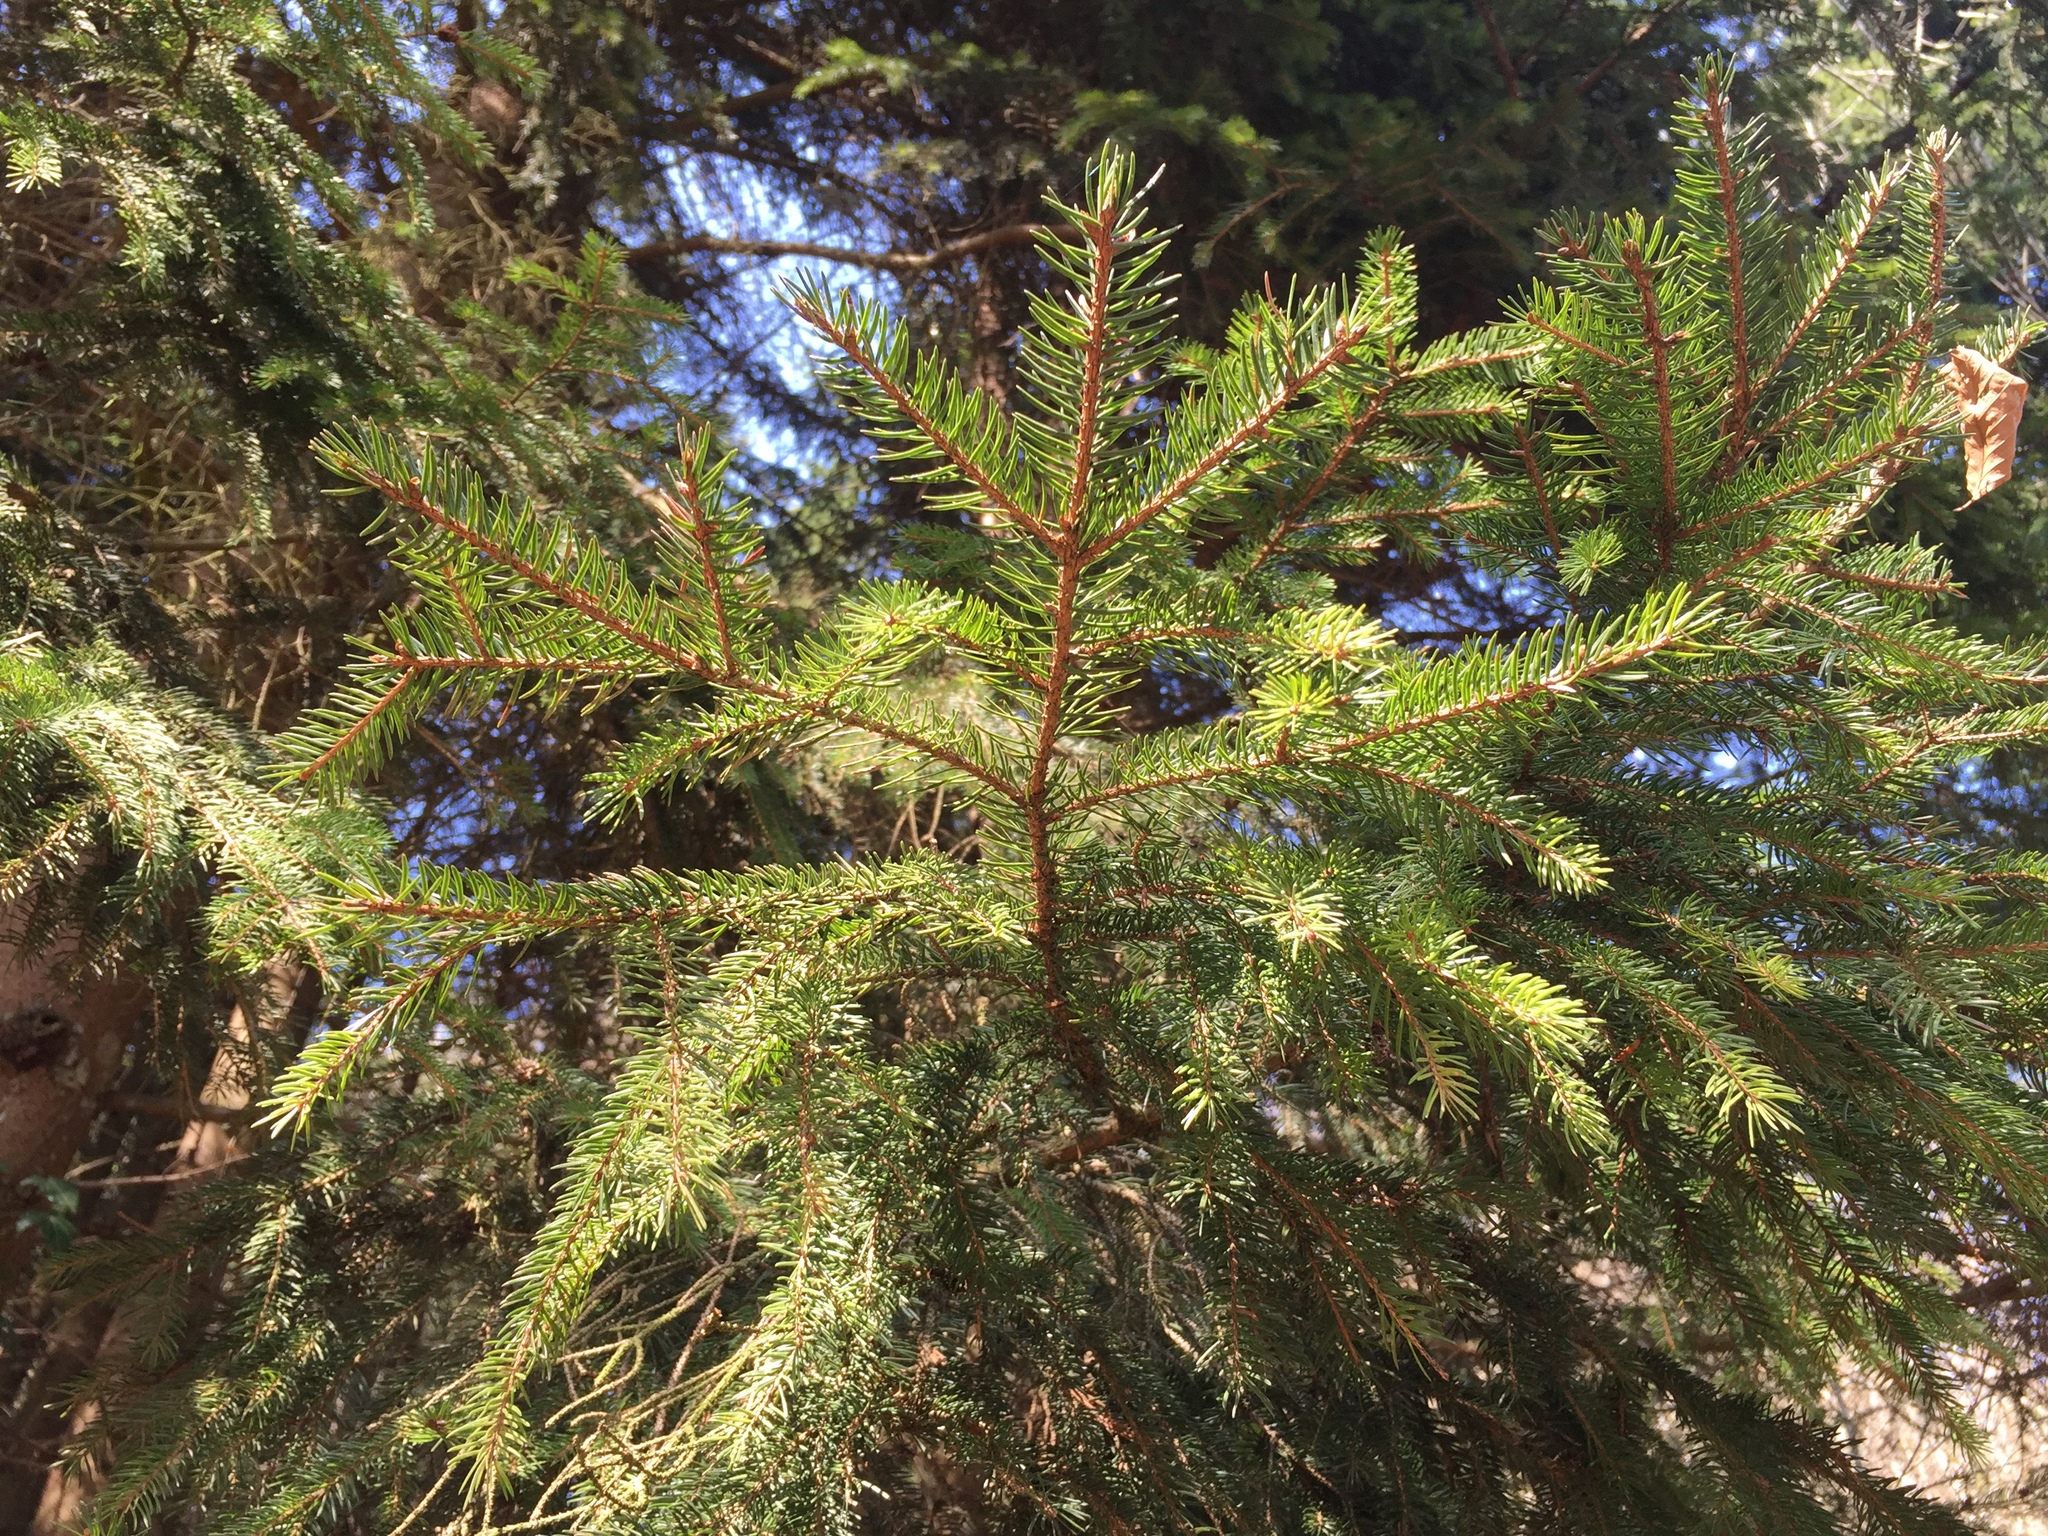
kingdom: Plantae
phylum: Tracheophyta
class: Pinopsida
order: Pinales
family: Pinaceae
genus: Picea
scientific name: Picea abies
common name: Norway spruce
